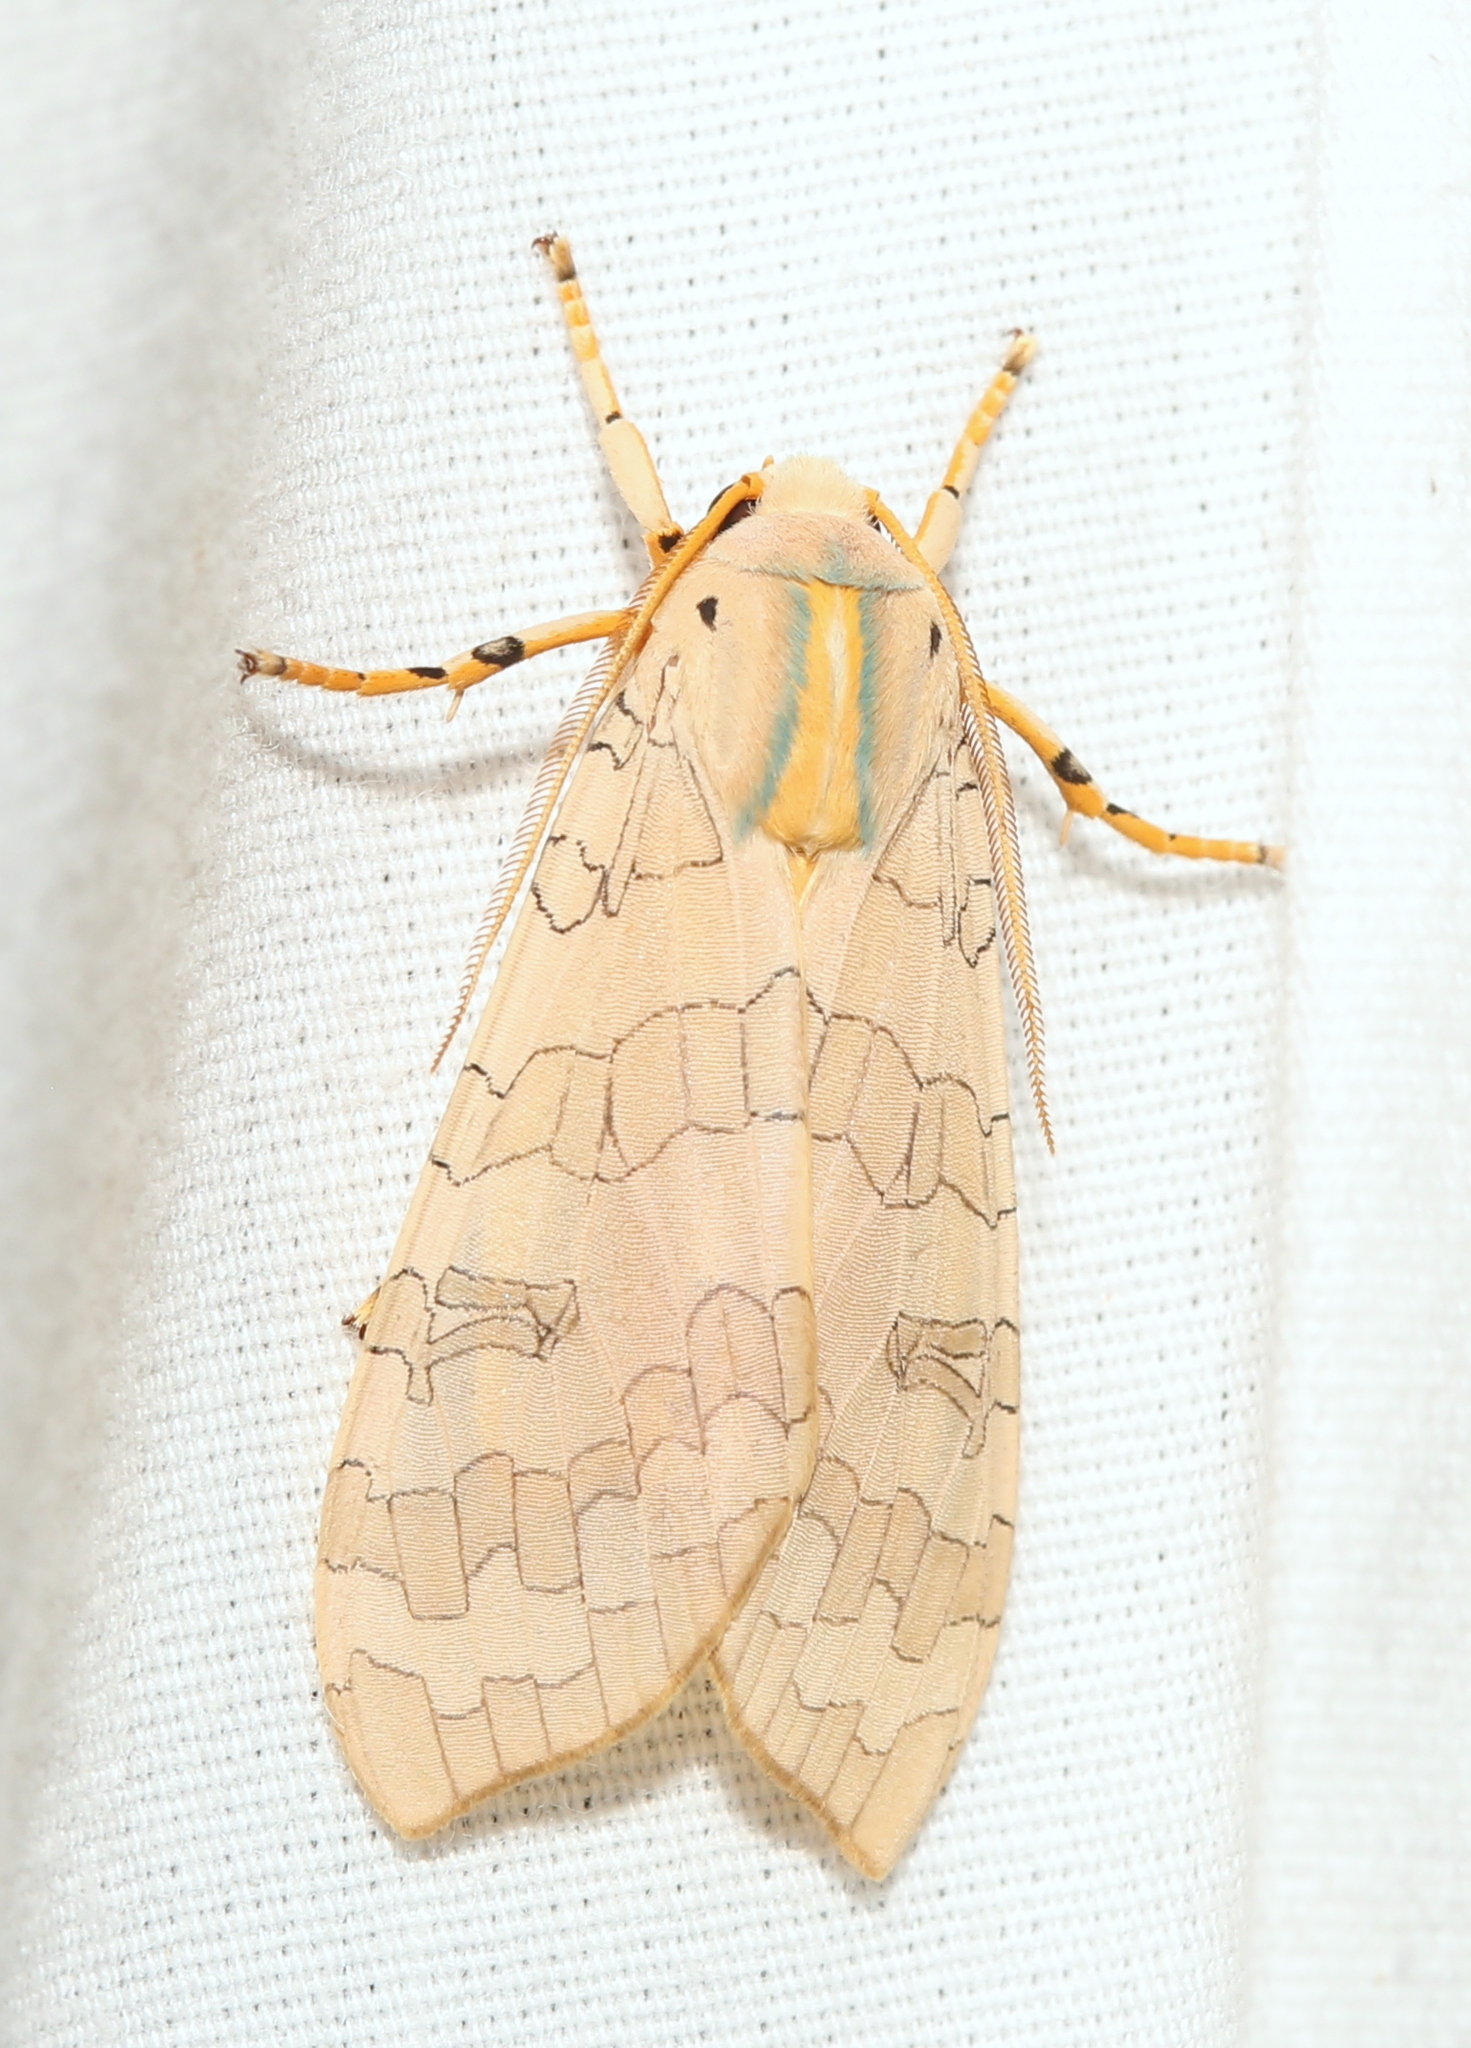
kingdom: Animalia
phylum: Arthropoda
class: Insecta
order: Lepidoptera
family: Erebidae
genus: Halysidota
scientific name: Halysidota
